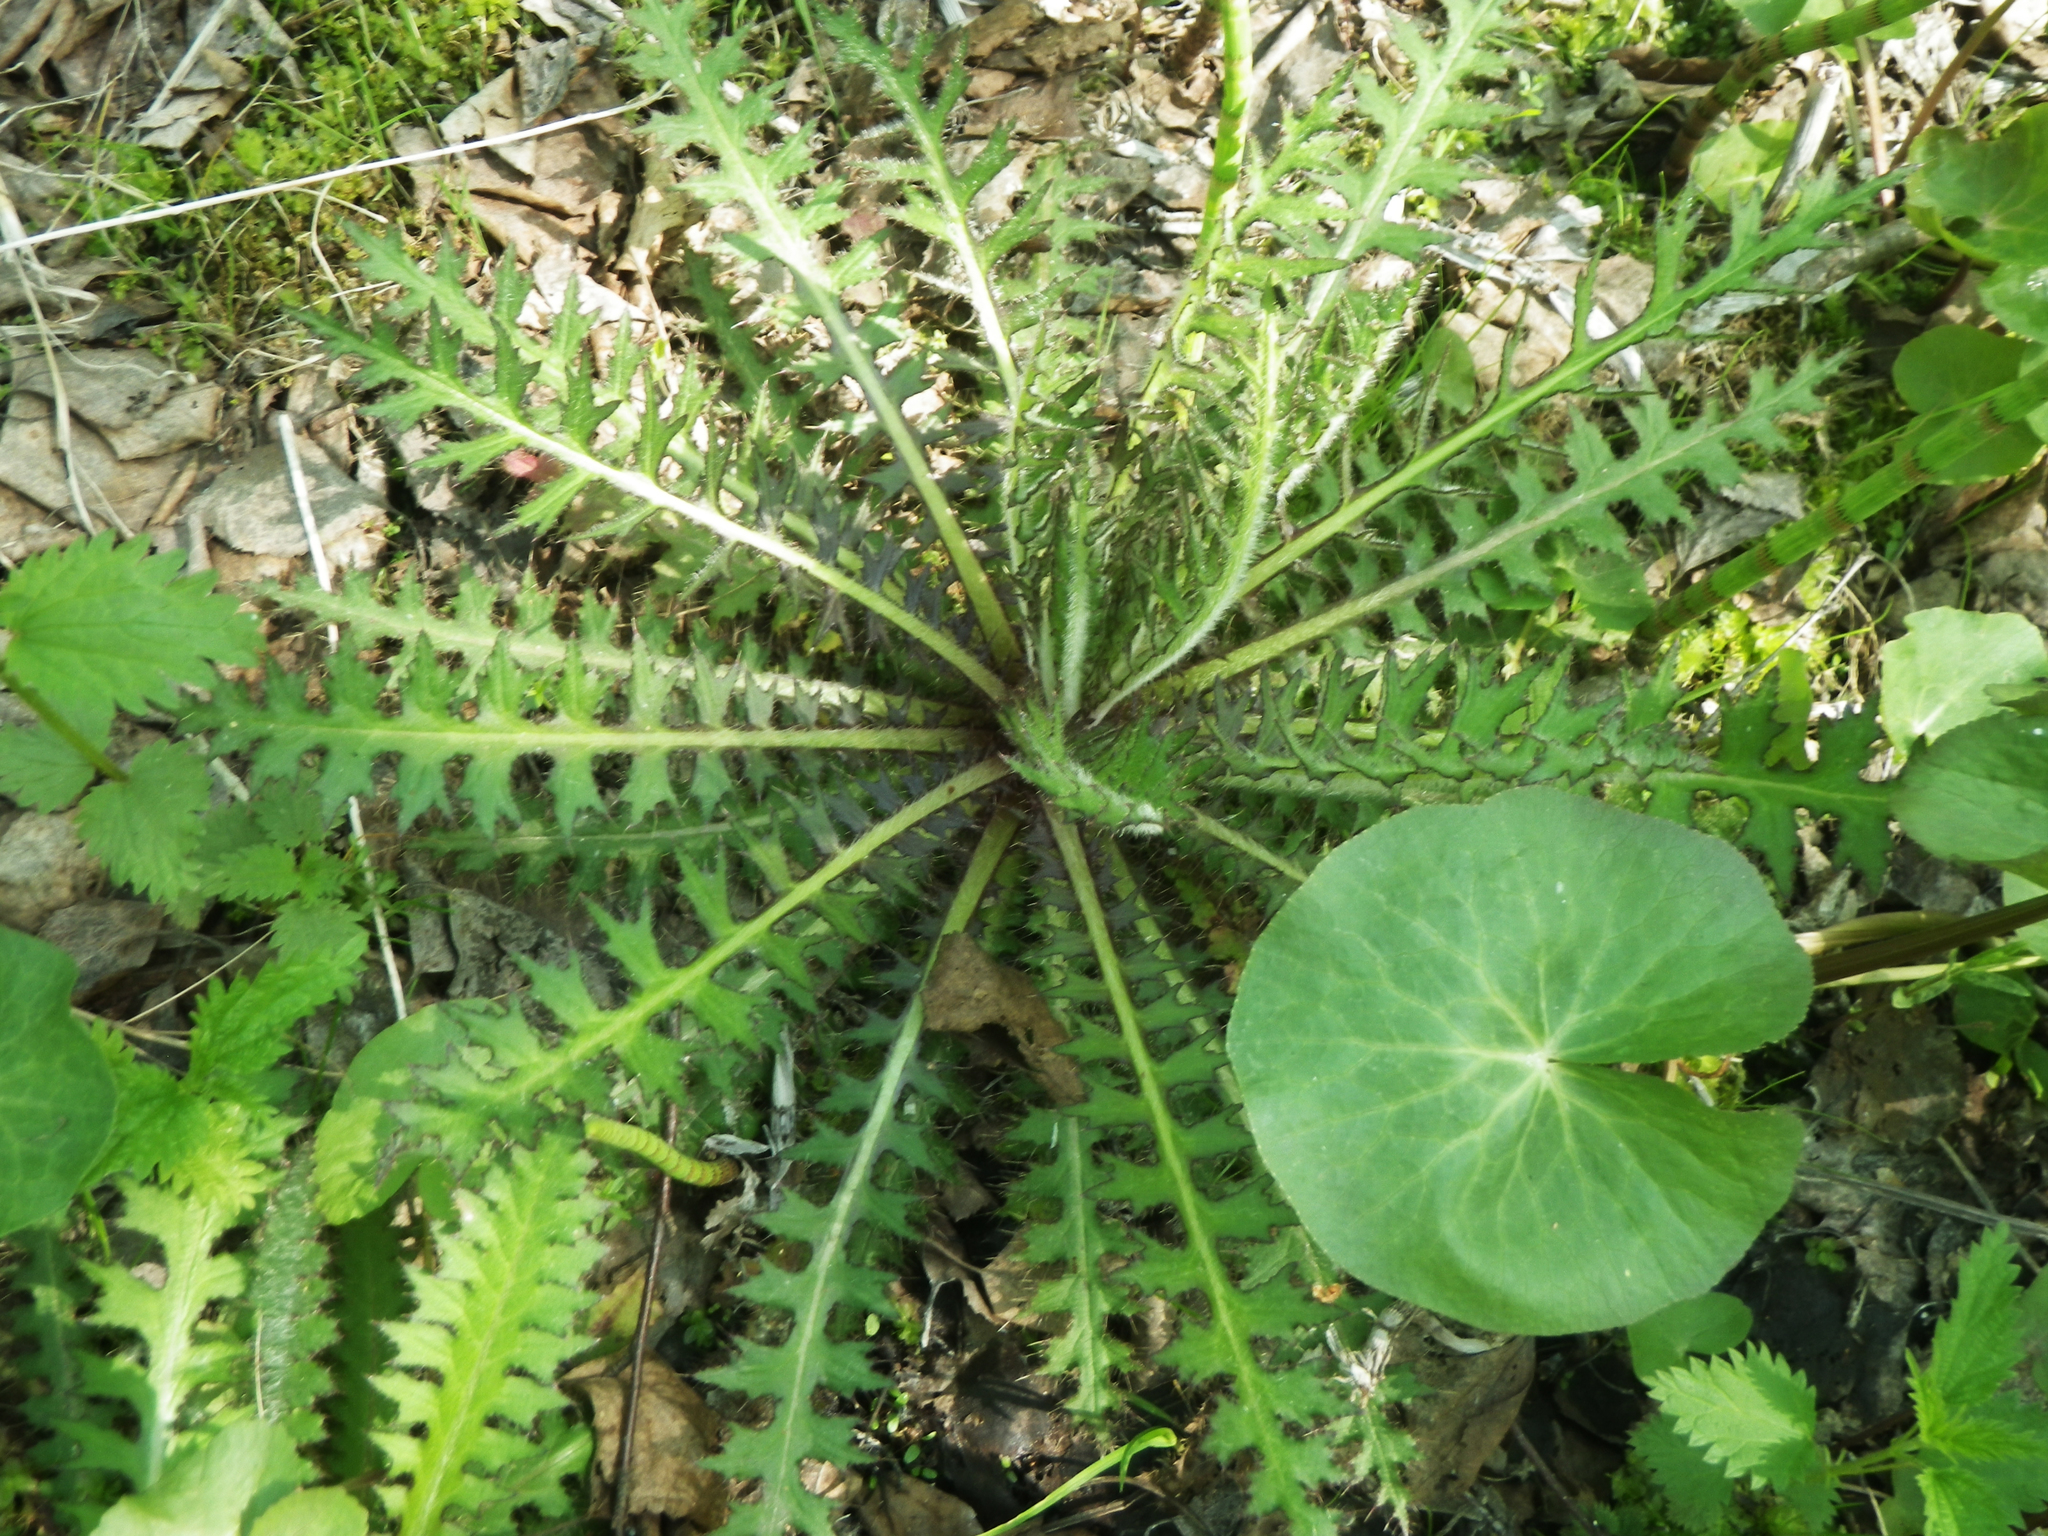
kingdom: Plantae
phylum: Tracheophyta
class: Magnoliopsida
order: Asterales
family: Asteraceae
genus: Cirsium
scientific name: Cirsium palustre
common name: Marsh thistle
